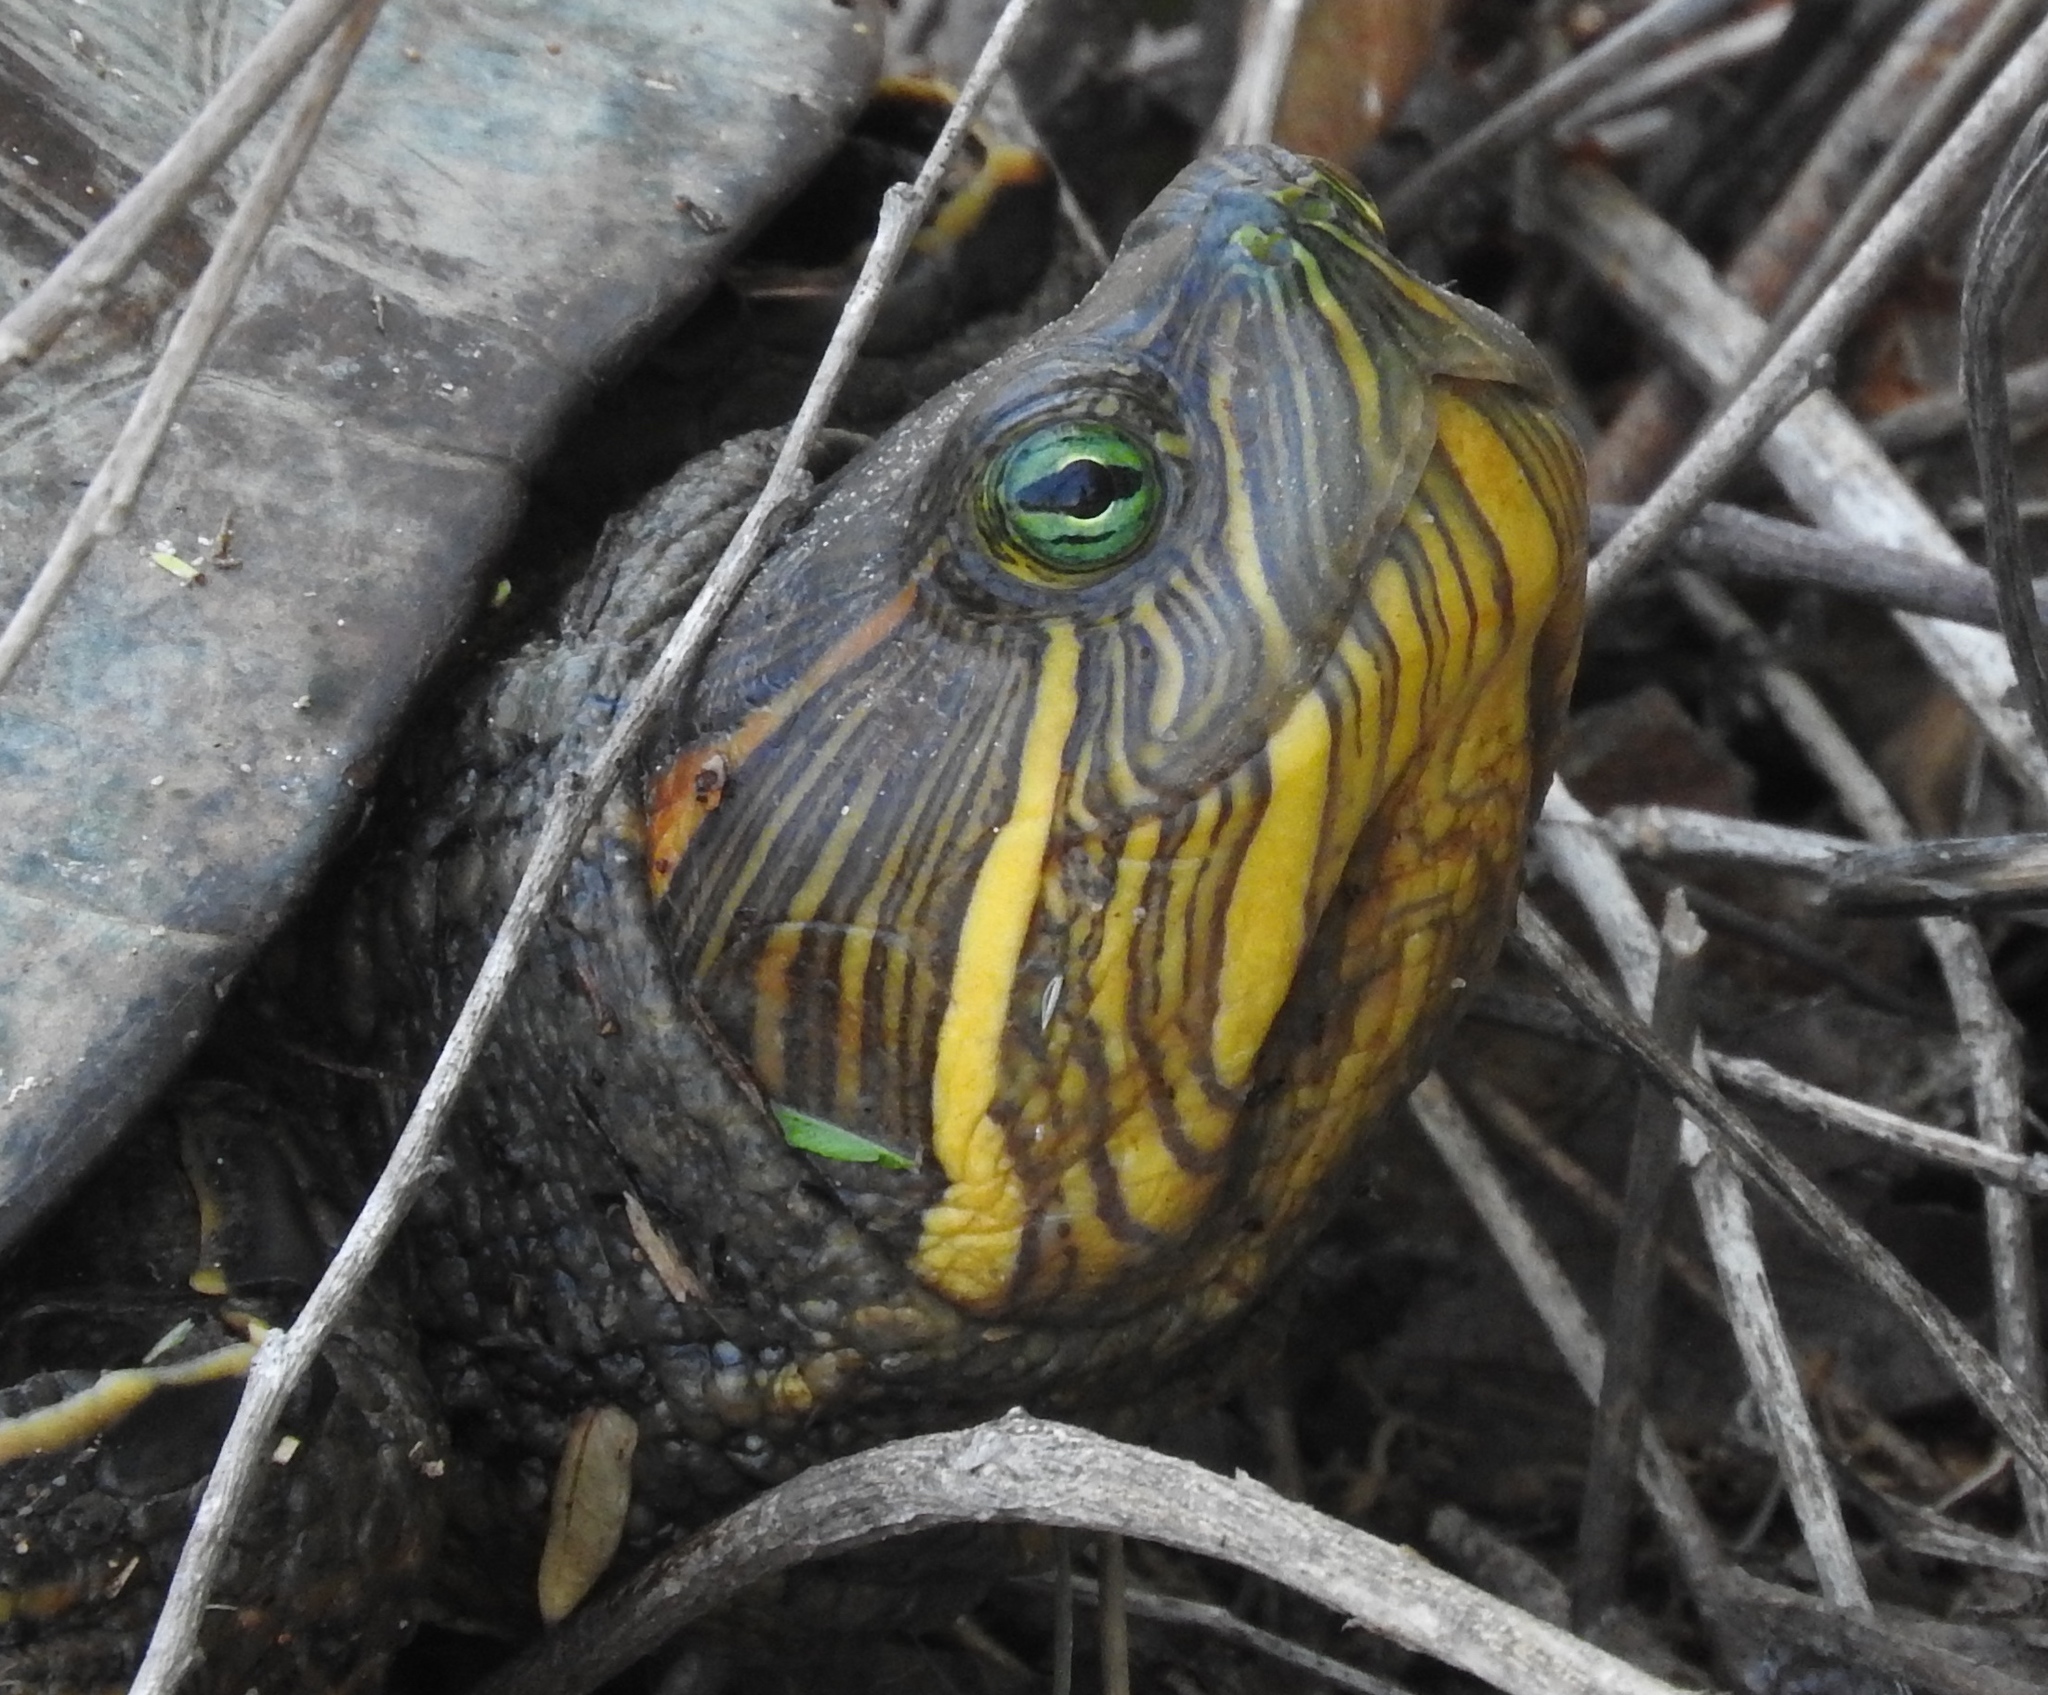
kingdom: Animalia
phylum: Chordata
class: Testudines
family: Emydidae
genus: Trachemys
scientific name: Trachemys scripta
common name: Slider
